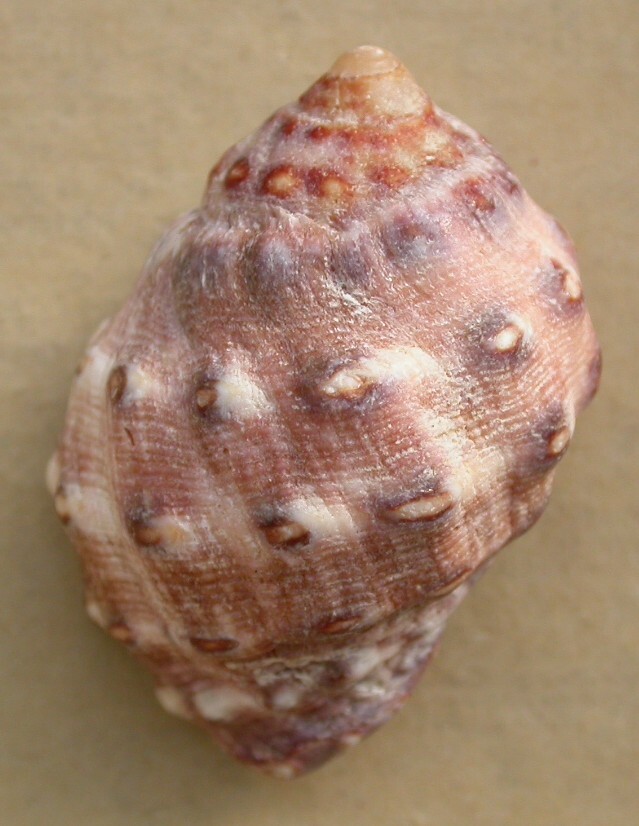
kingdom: Animalia
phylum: Mollusca
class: Gastropoda
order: Neogastropoda
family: Muricidae
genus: Mancinella
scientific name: Mancinella alouina
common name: Alou rock shell
